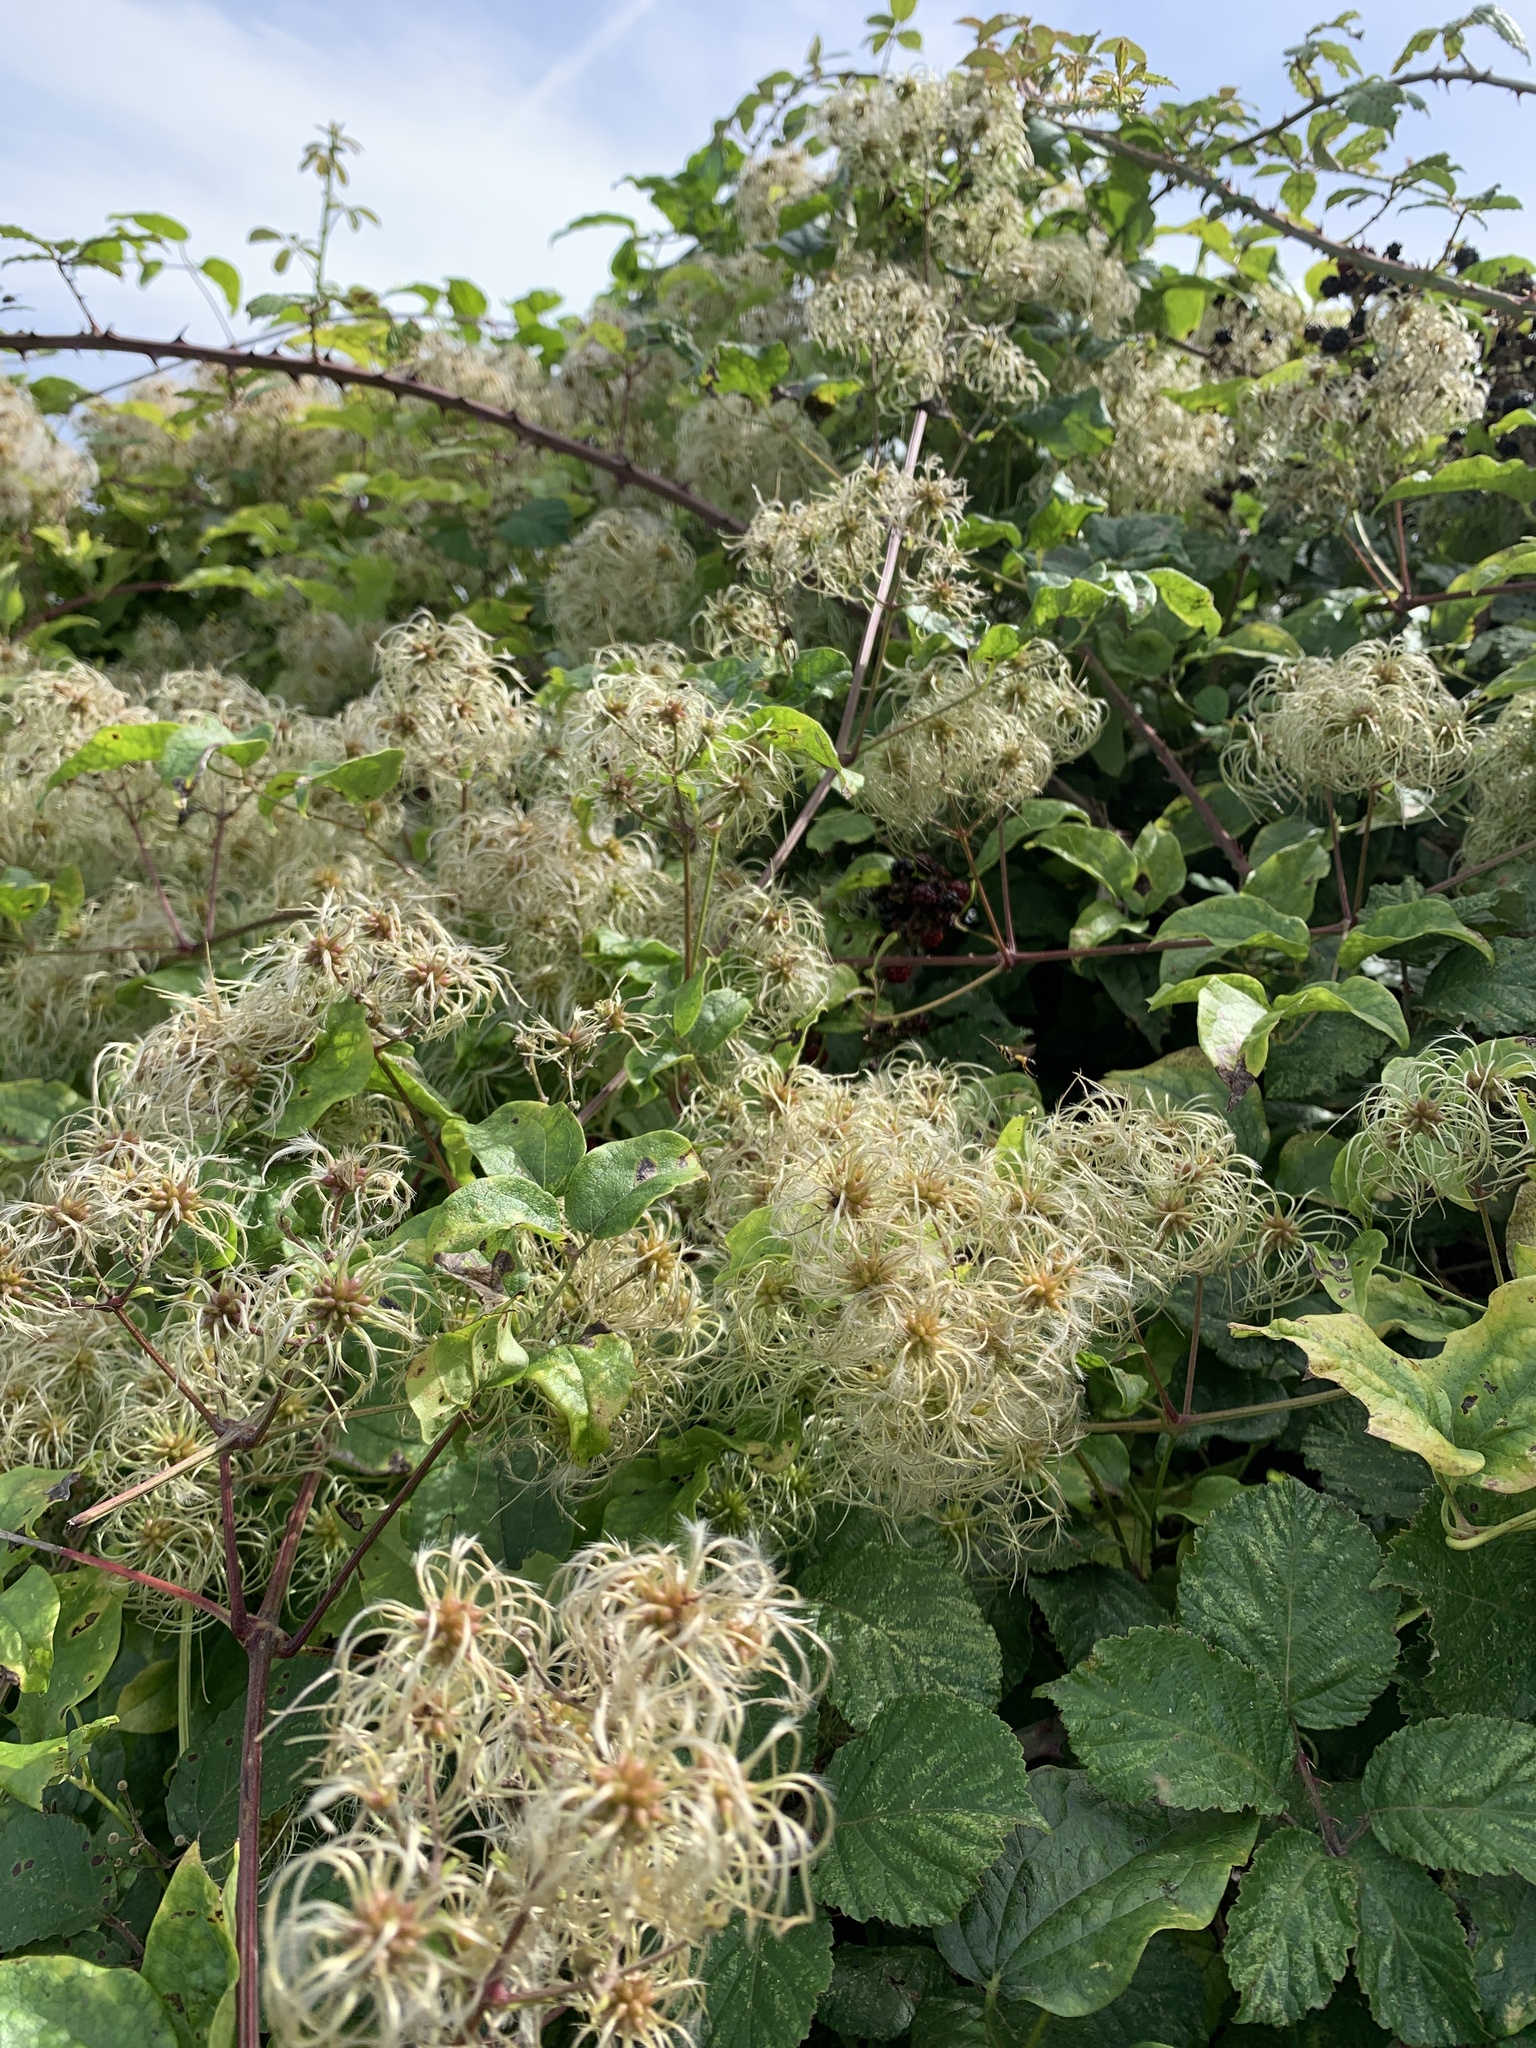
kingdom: Plantae
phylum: Tracheophyta
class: Magnoliopsida
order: Ranunculales
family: Ranunculaceae
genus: Clematis
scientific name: Clematis vitalba
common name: Evergreen clematis
